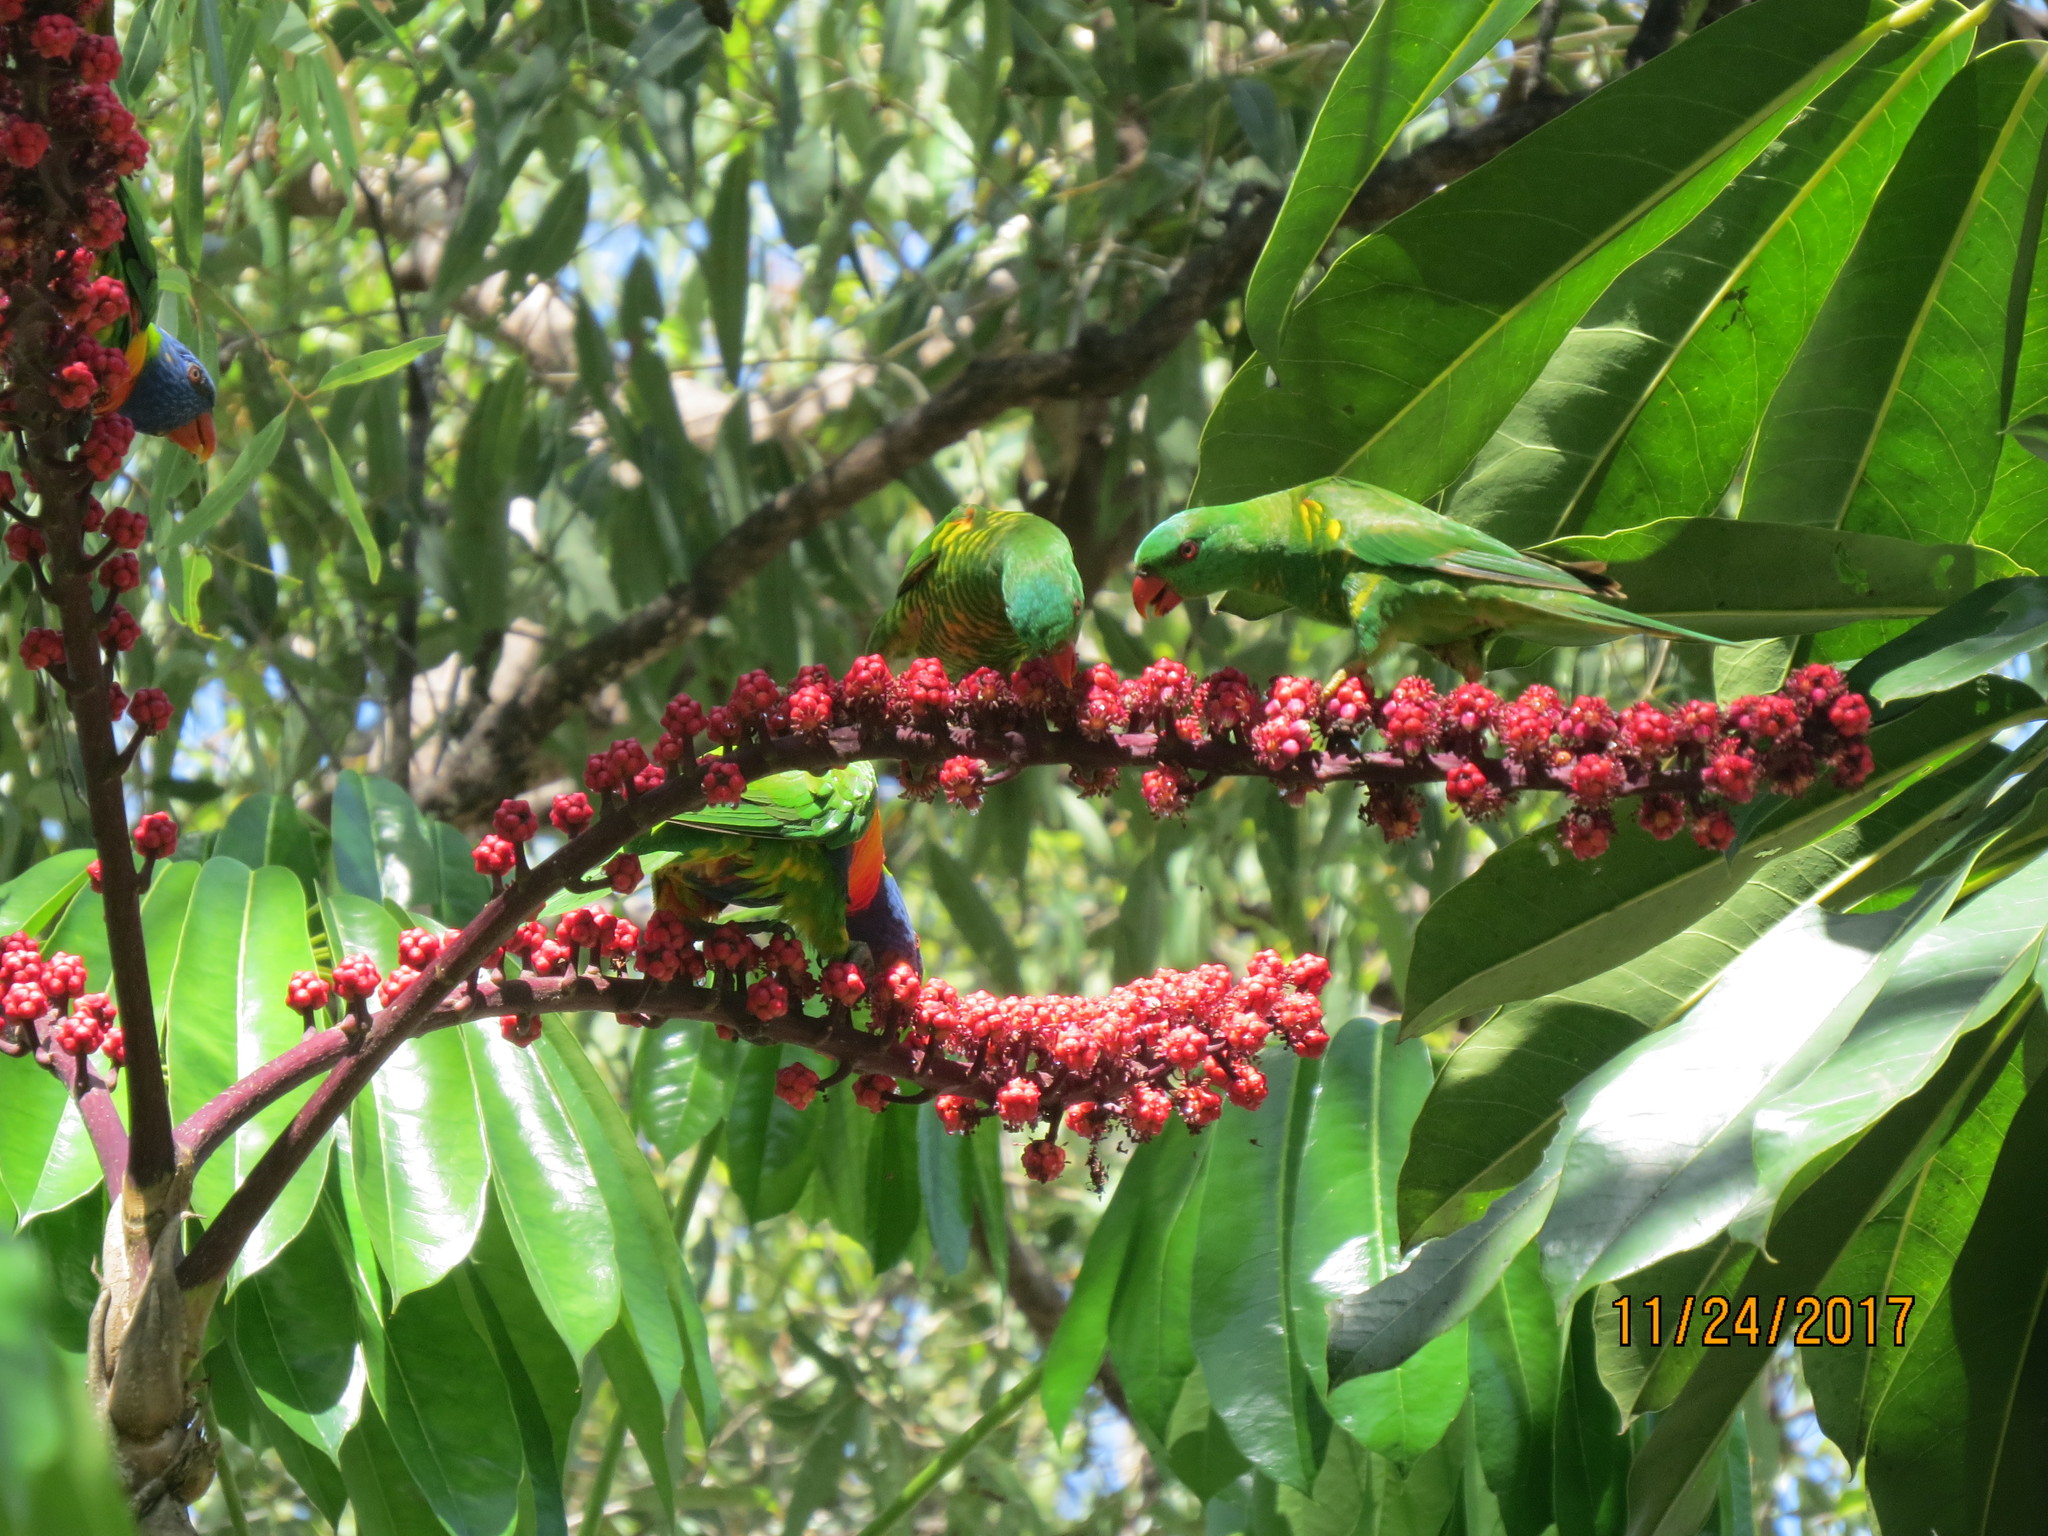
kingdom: Plantae
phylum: Tracheophyta
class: Magnoliopsida
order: Apiales
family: Araliaceae
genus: Heptapleurum
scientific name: Heptapleurum actinophyllum
